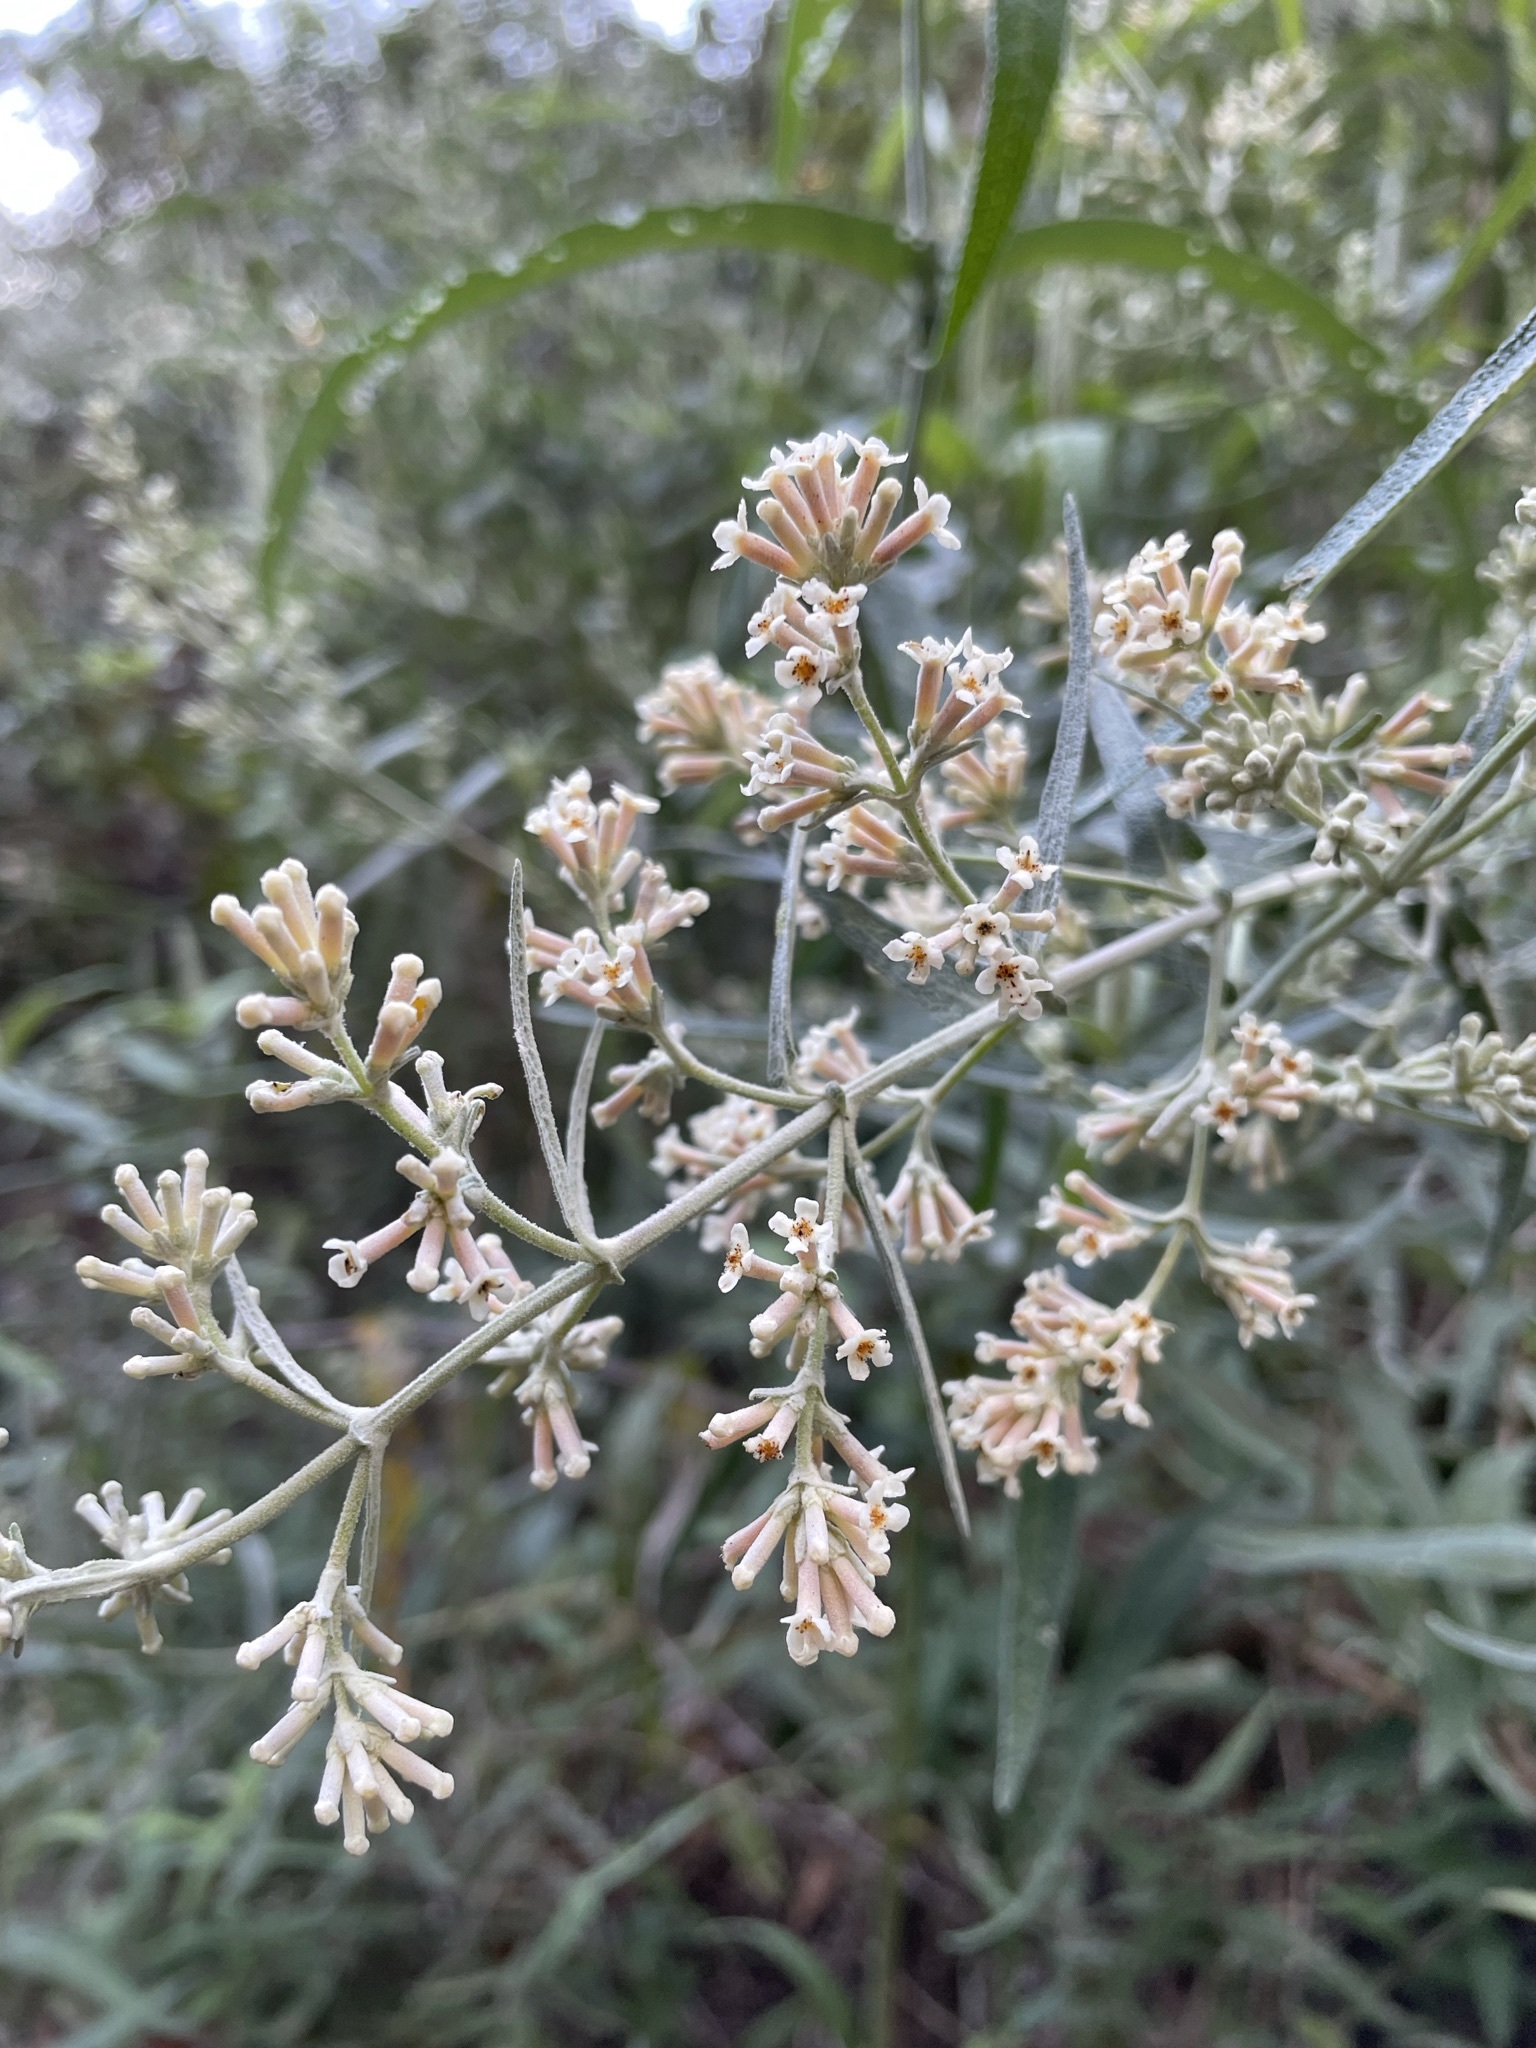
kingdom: Plantae
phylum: Tracheophyta
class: Magnoliopsida
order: Lamiales
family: Scrophulariaceae
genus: Buddleja
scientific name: Buddleja salviifolia
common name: Sagewood
